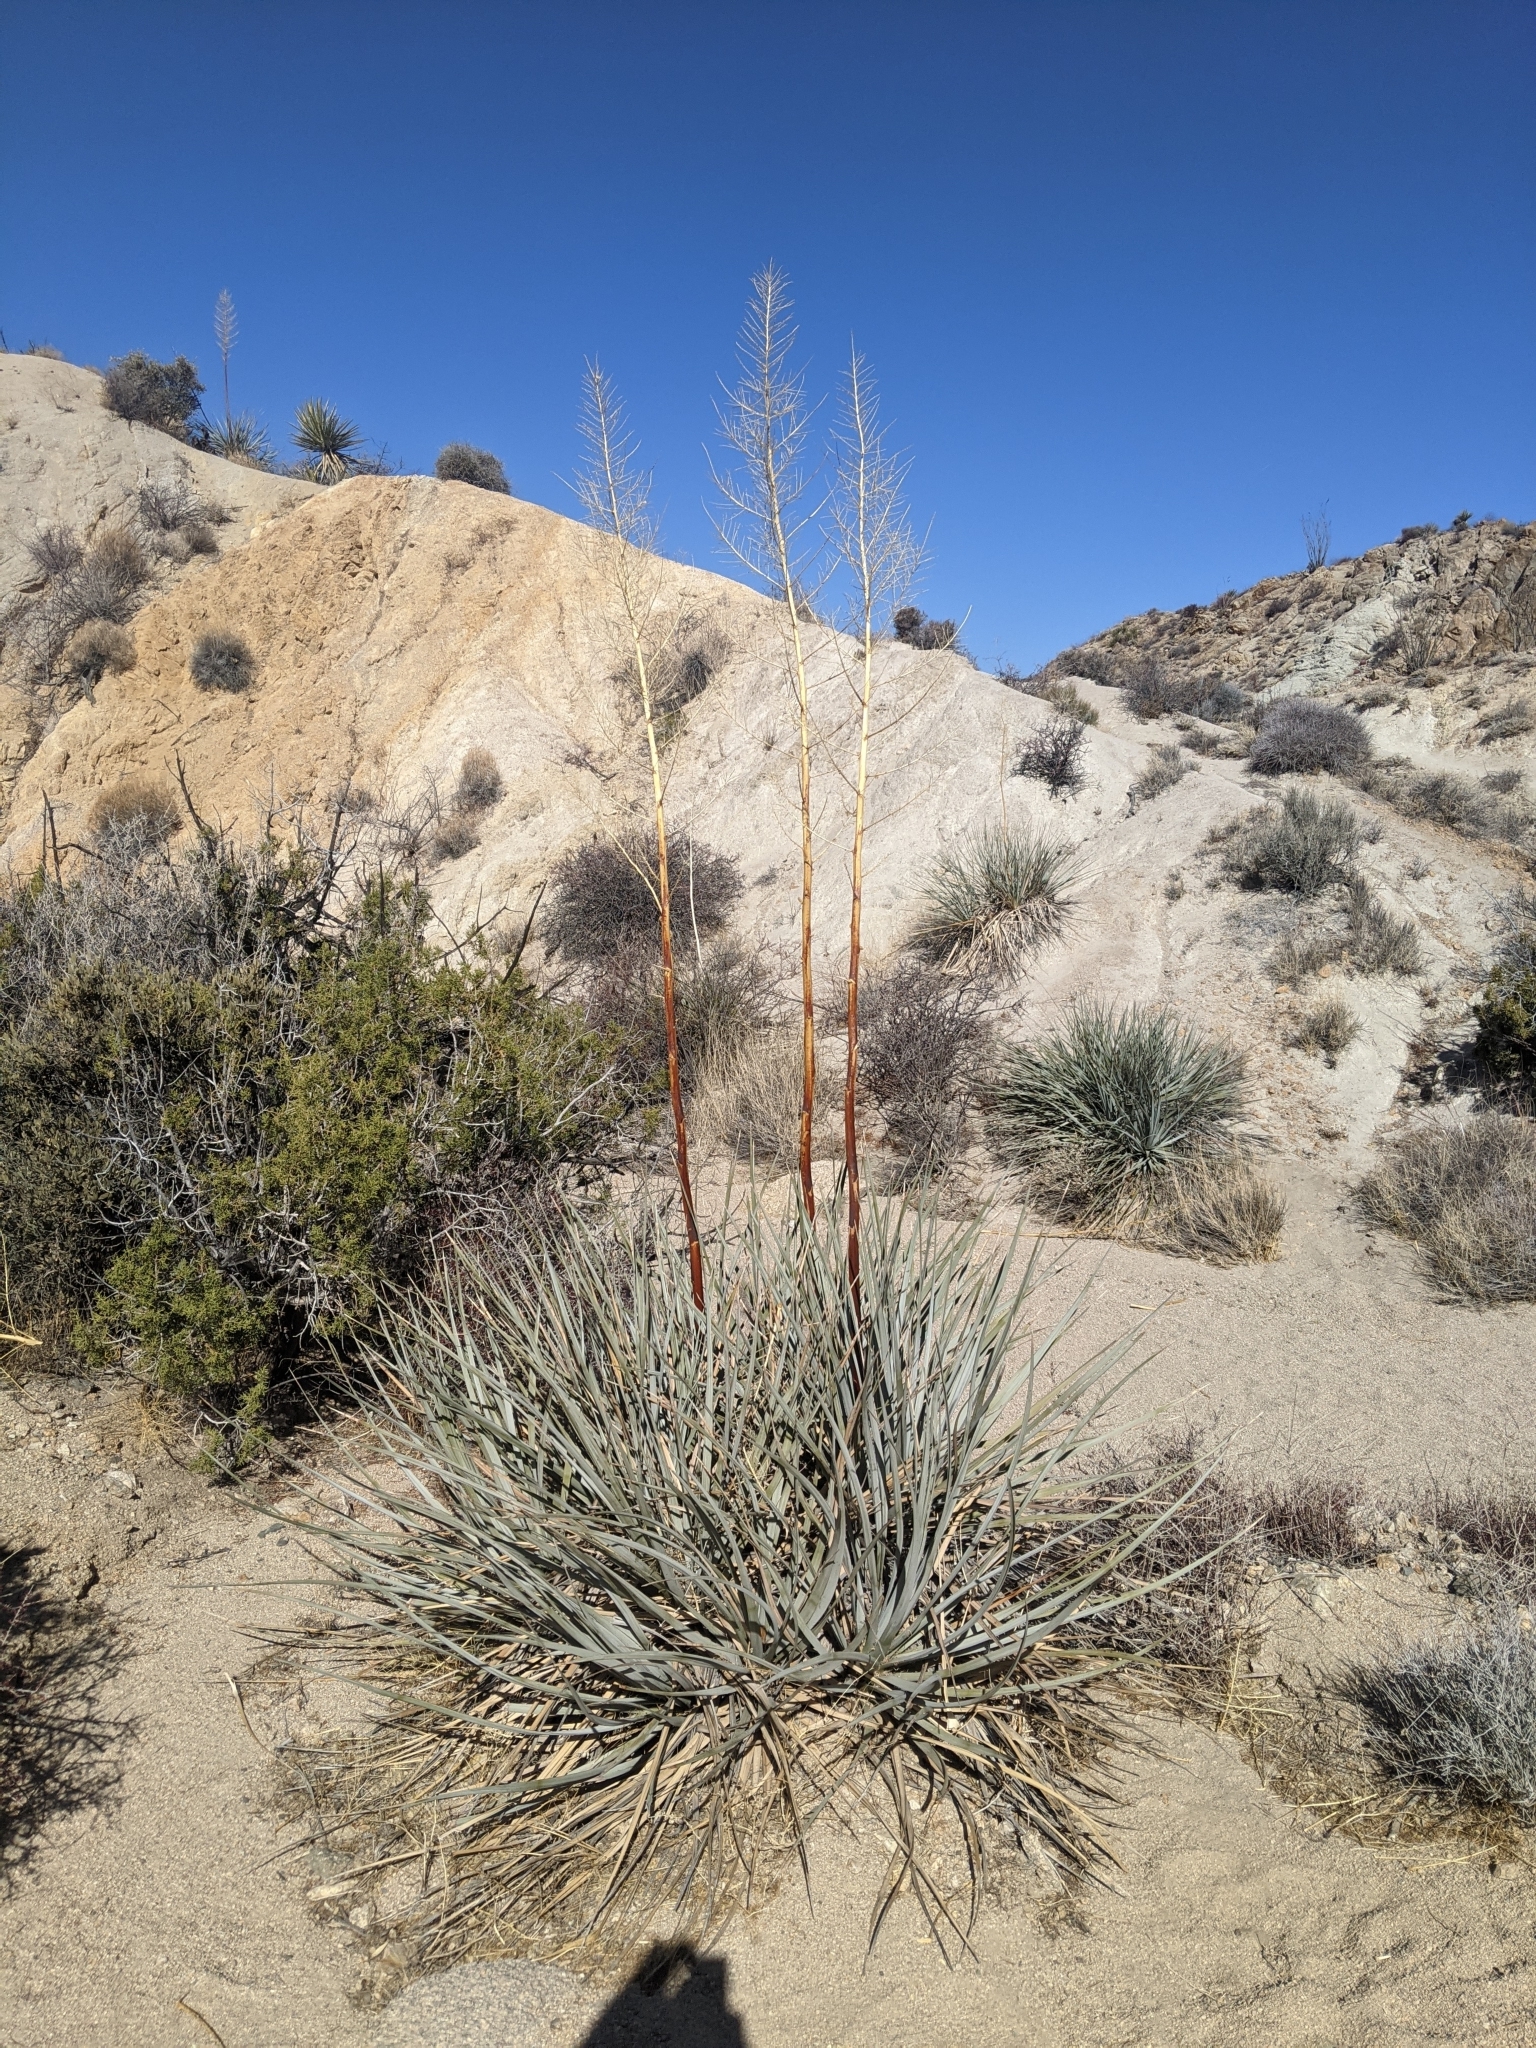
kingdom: Plantae
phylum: Tracheophyta
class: Liliopsida
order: Asparagales
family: Asparagaceae
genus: Nolina
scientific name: Nolina bigelovii
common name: Bigelow bear-grass
